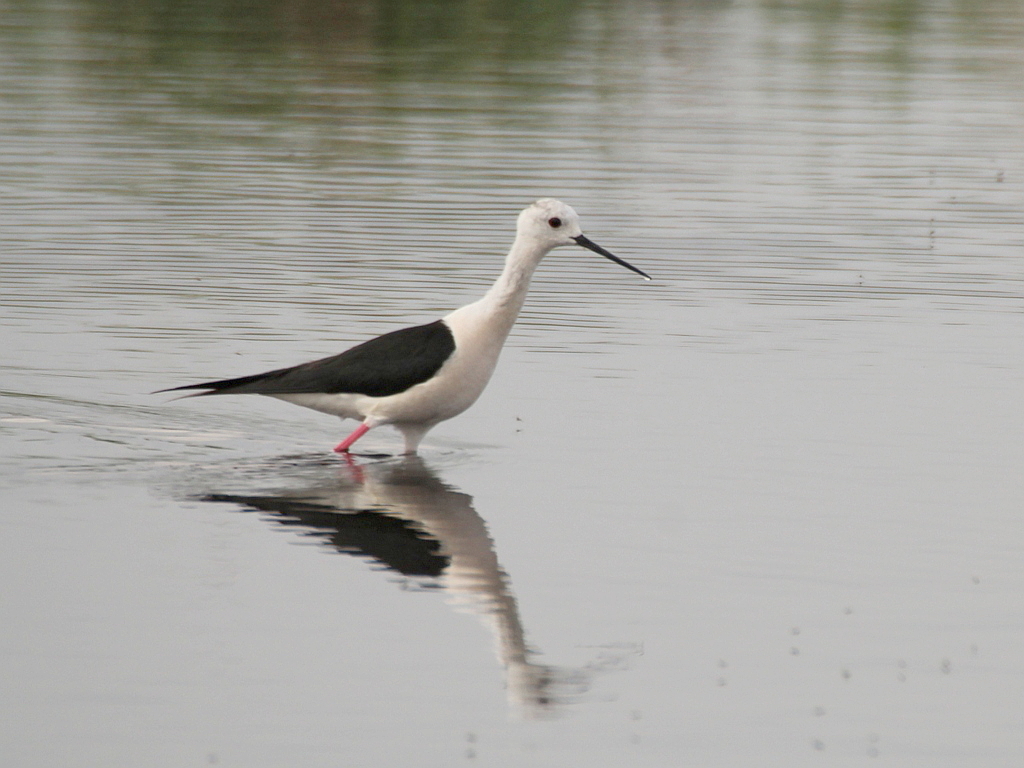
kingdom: Animalia
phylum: Chordata
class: Aves
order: Charadriiformes
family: Recurvirostridae
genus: Himantopus
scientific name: Himantopus himantopus
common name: Black-winged stilt
